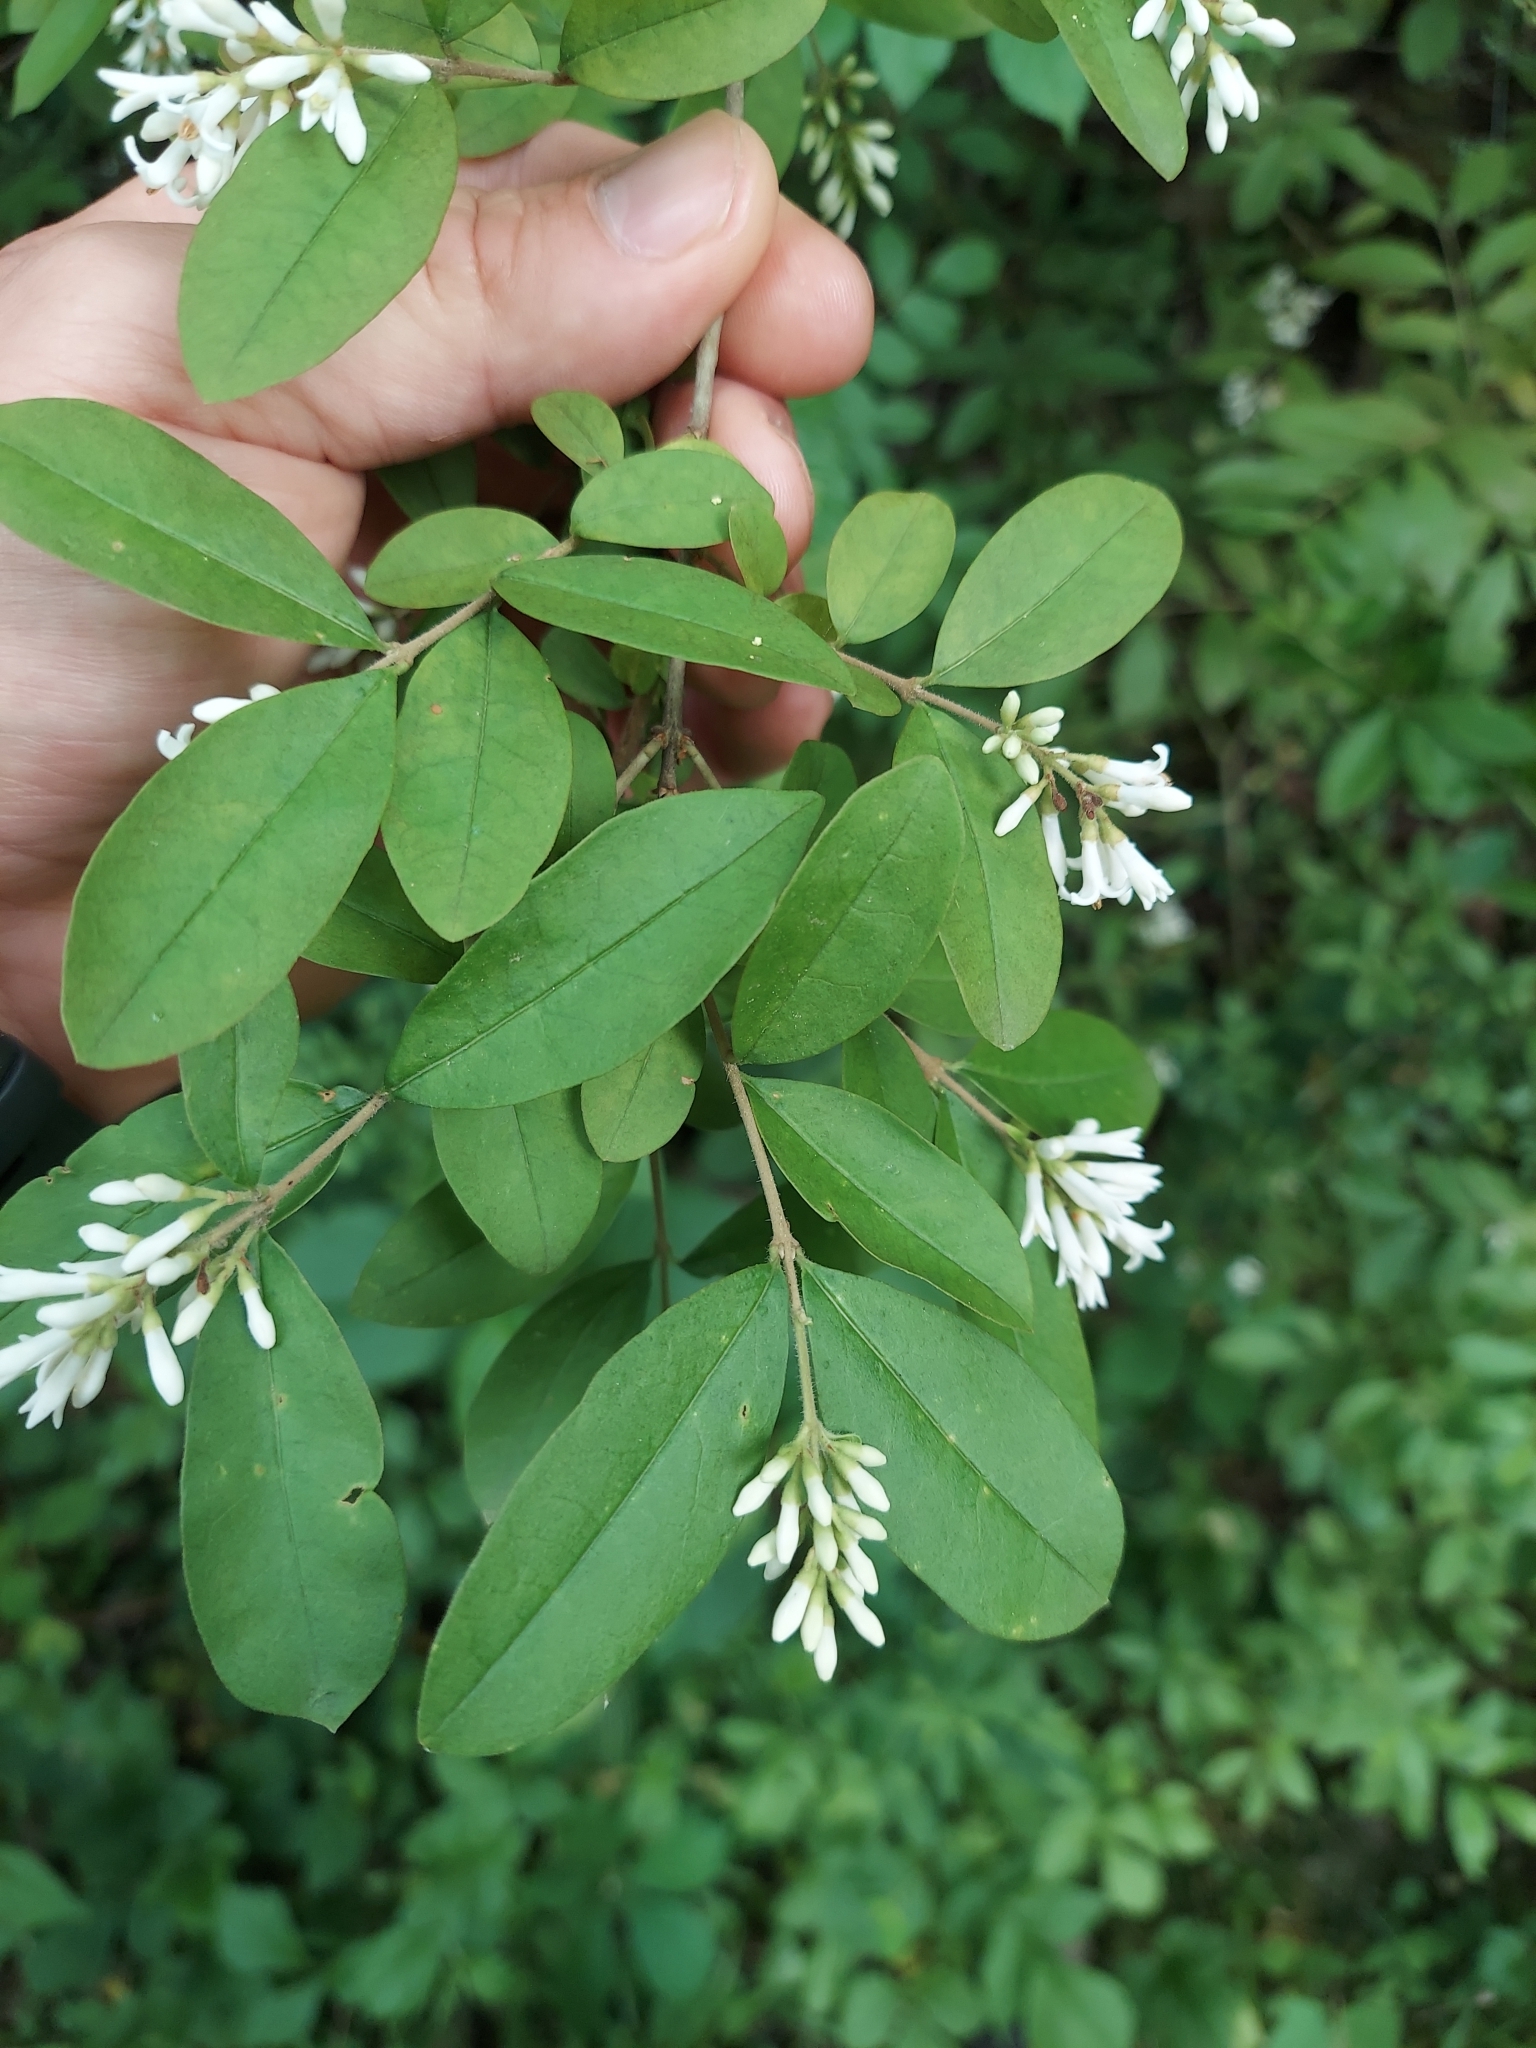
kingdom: Plantae
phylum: Tracheophyta
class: Magnoliopsida
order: Lamiales
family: Oleaceae
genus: Ligustrum
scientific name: Ligustrum obtusifolium
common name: Border privet
